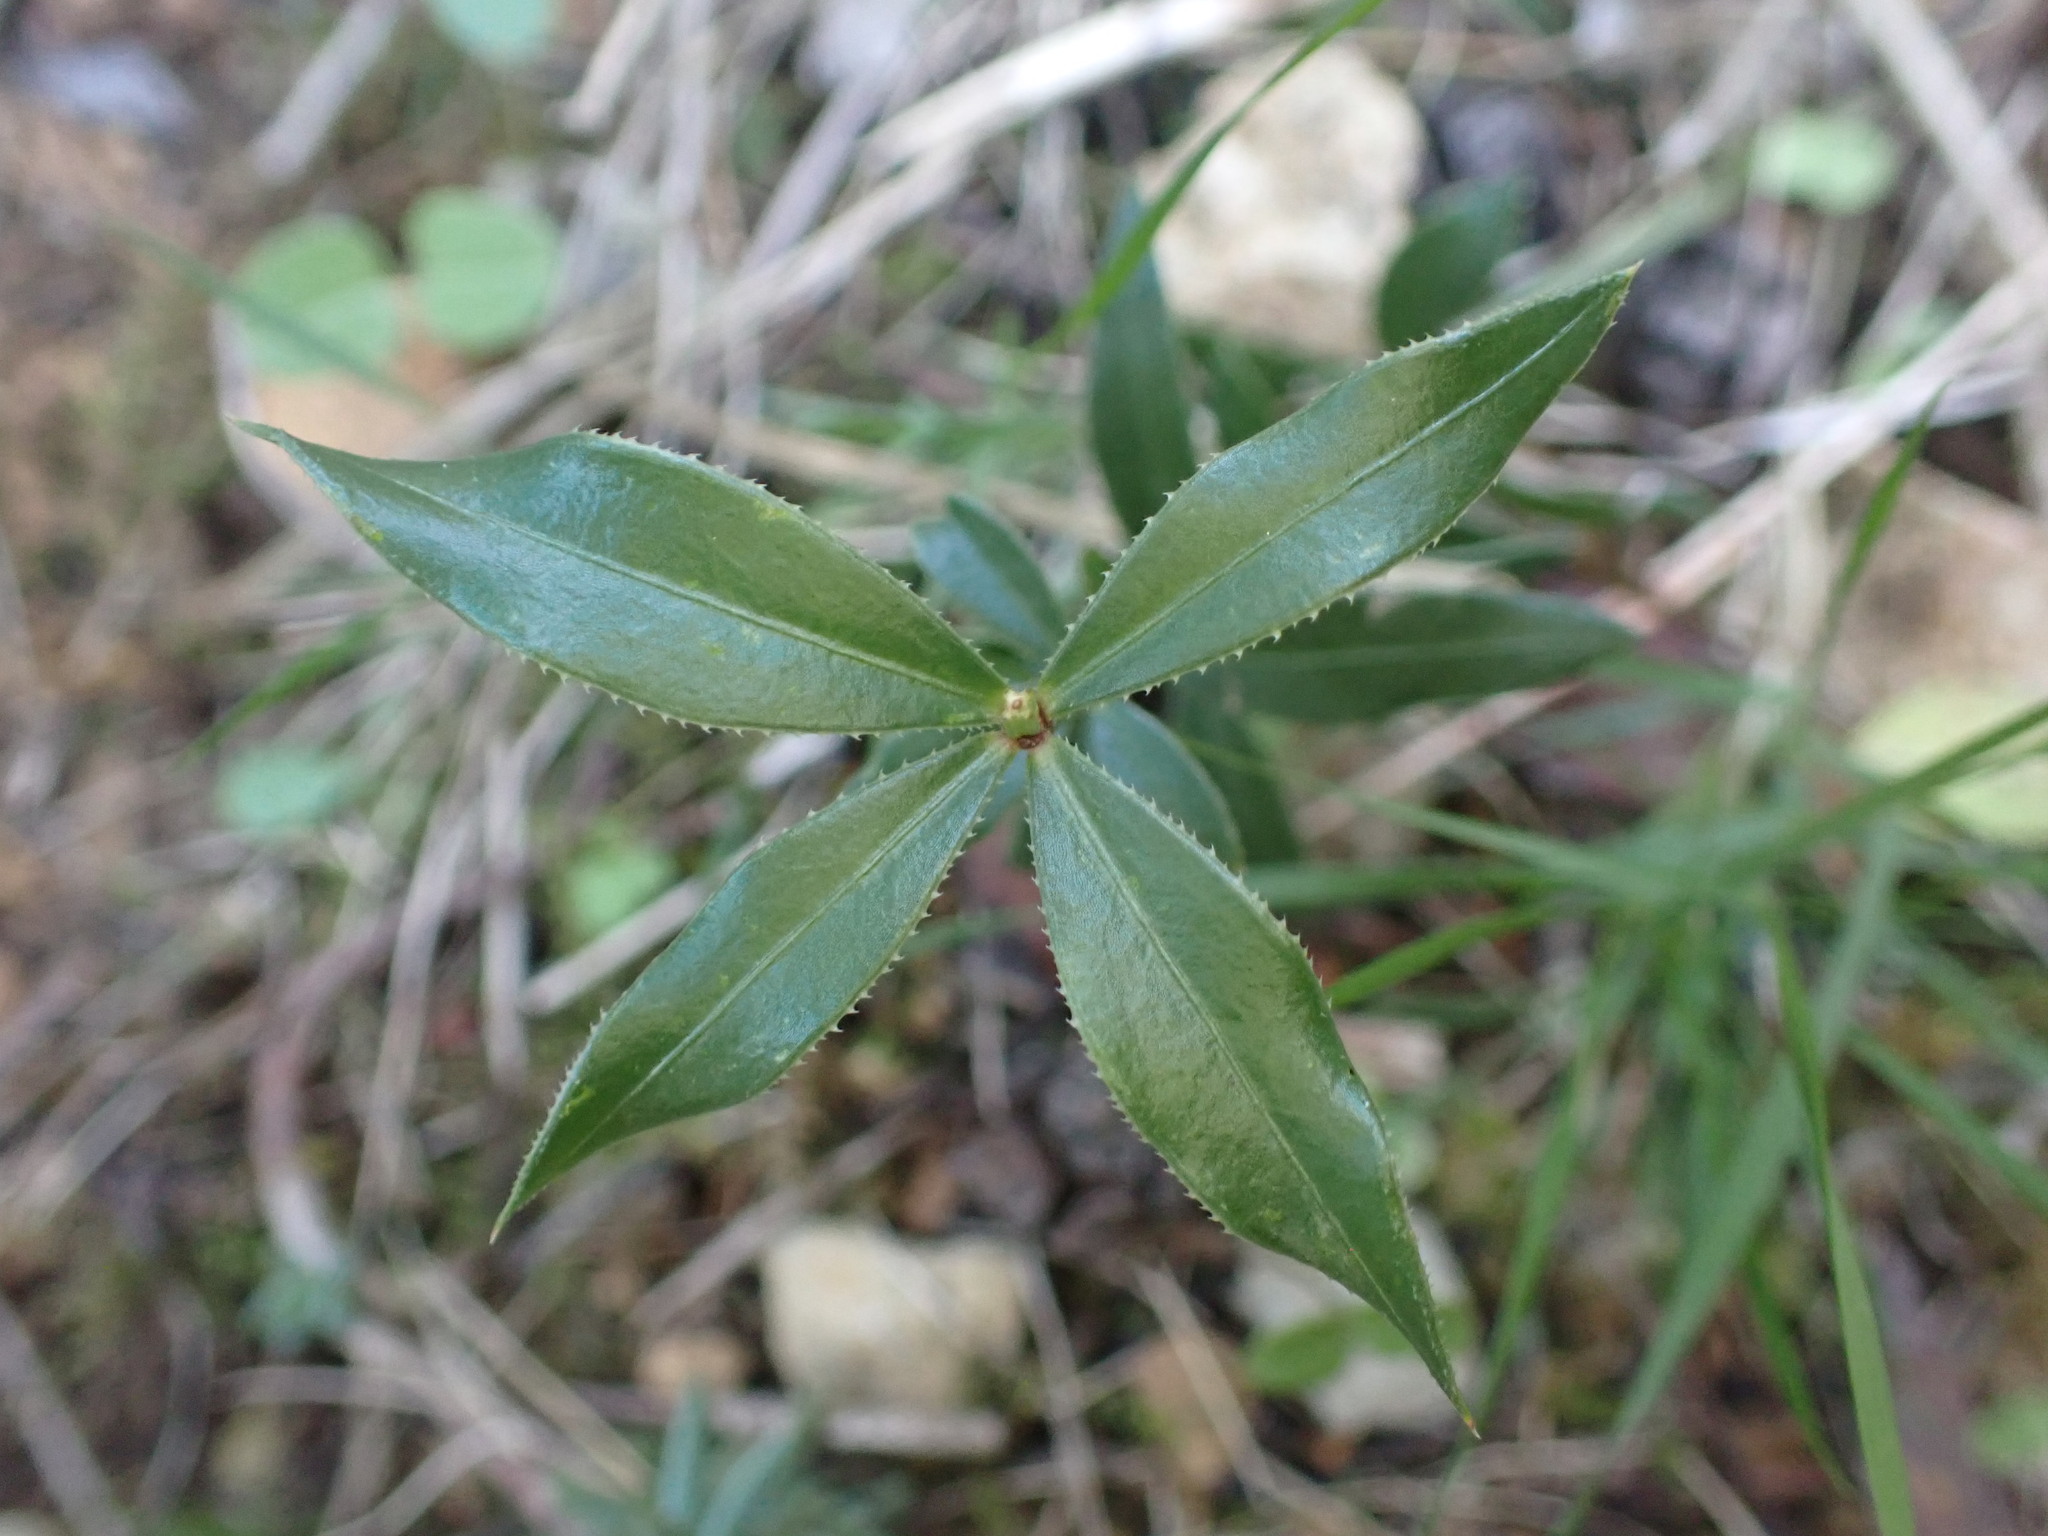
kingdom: Plantae
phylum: Tracheophyta
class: Magnoliopsida
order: Gentianales
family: Rubiaceae
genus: Rubia
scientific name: Rubia peregrina
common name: Wild madder
